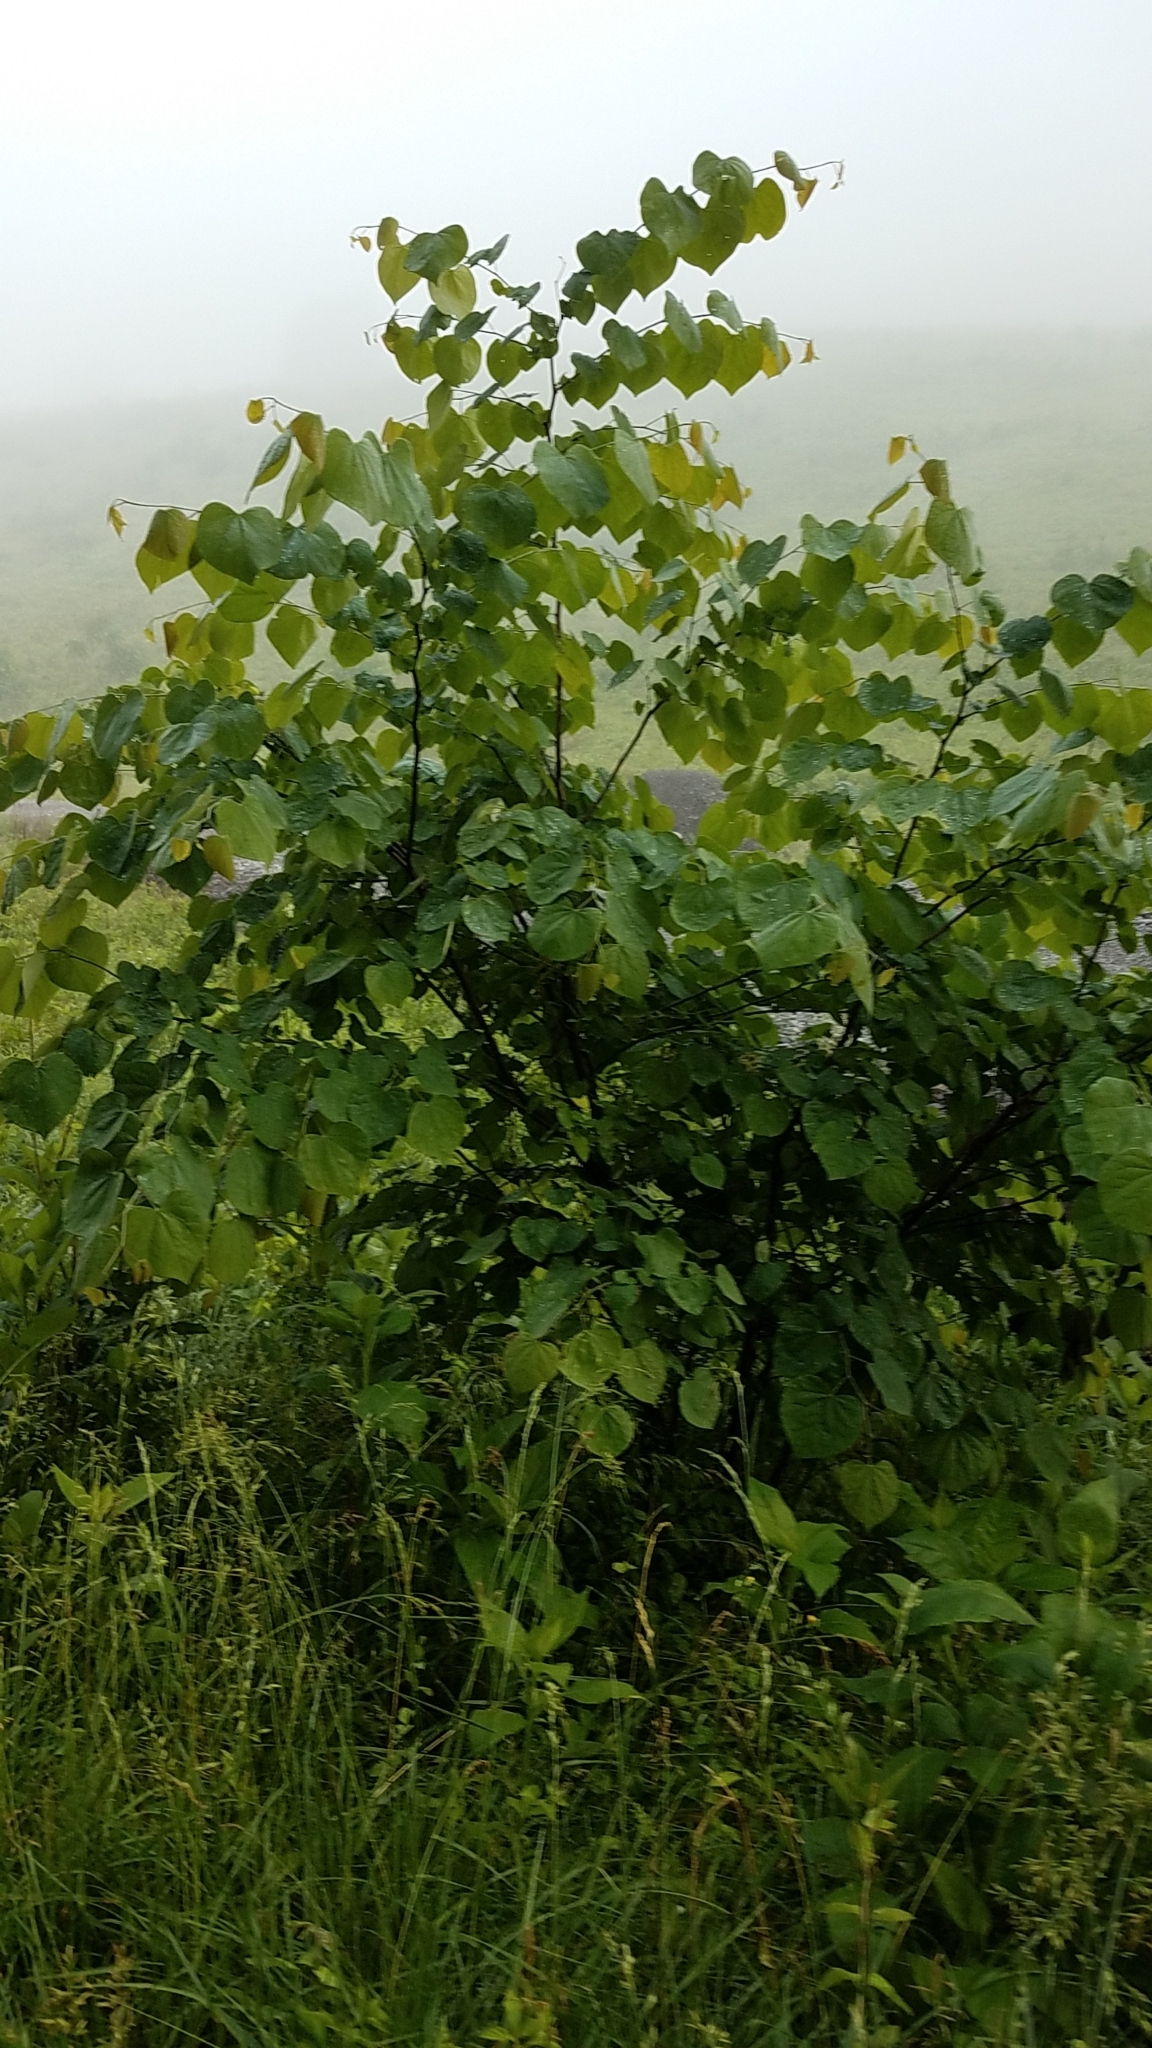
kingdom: Plantae
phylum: Tracheophyta
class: Magnoliopsida
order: Fabales
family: Fabaceae
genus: Cercis
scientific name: Cercis canadensis
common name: Eastern redbud
